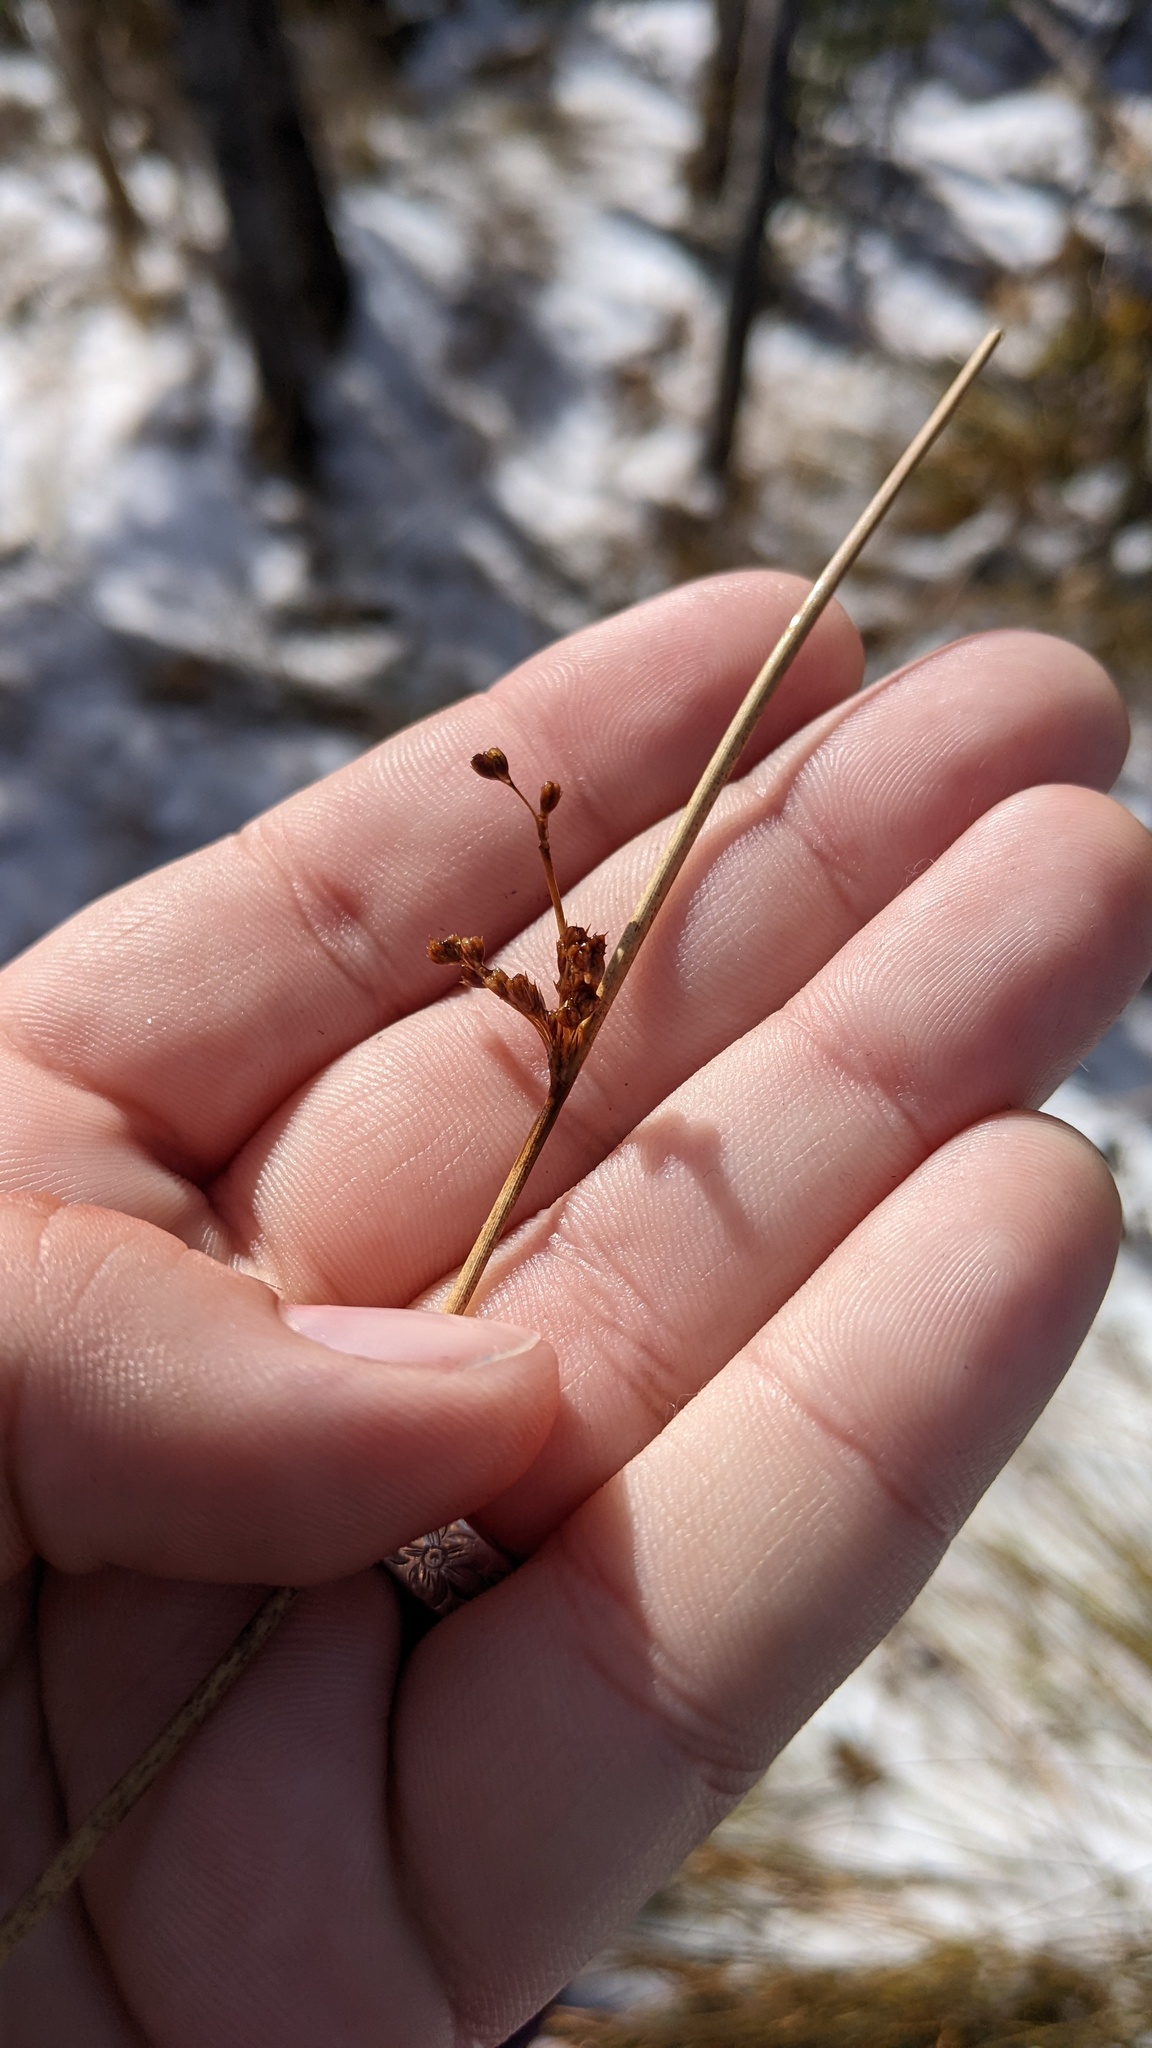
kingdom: Plantae
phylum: Tracheophyta
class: Liliopsida
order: Poales
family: Juncaceae
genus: Juncus
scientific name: Juncus effusus
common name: Soft rush
